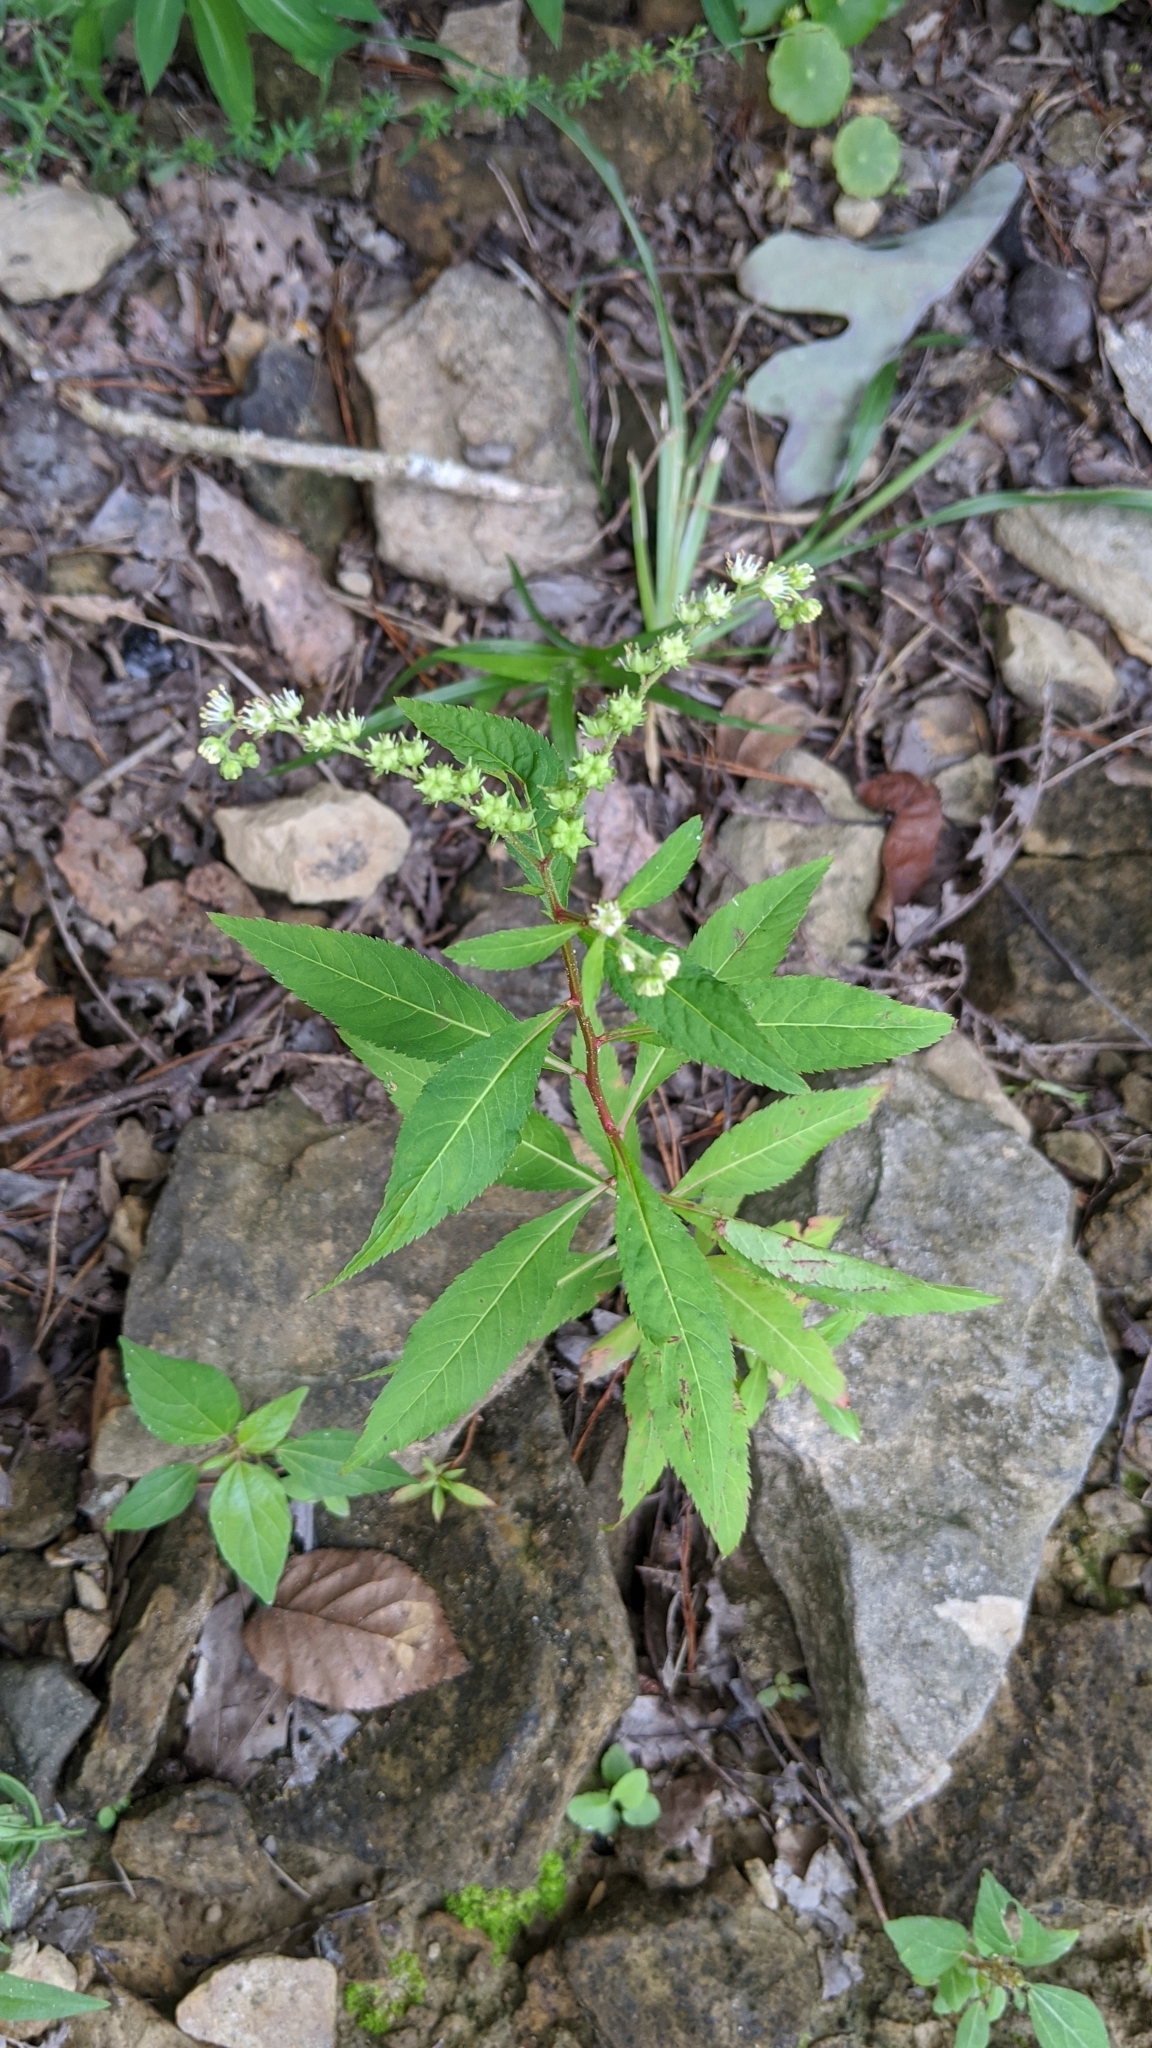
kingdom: Plantae
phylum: Tracheophyta
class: Magnoliopsida
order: Saxifragales
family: Penthoraceae
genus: Penthorum
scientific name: Penthorum sedoides
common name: Ditch stonecrop
